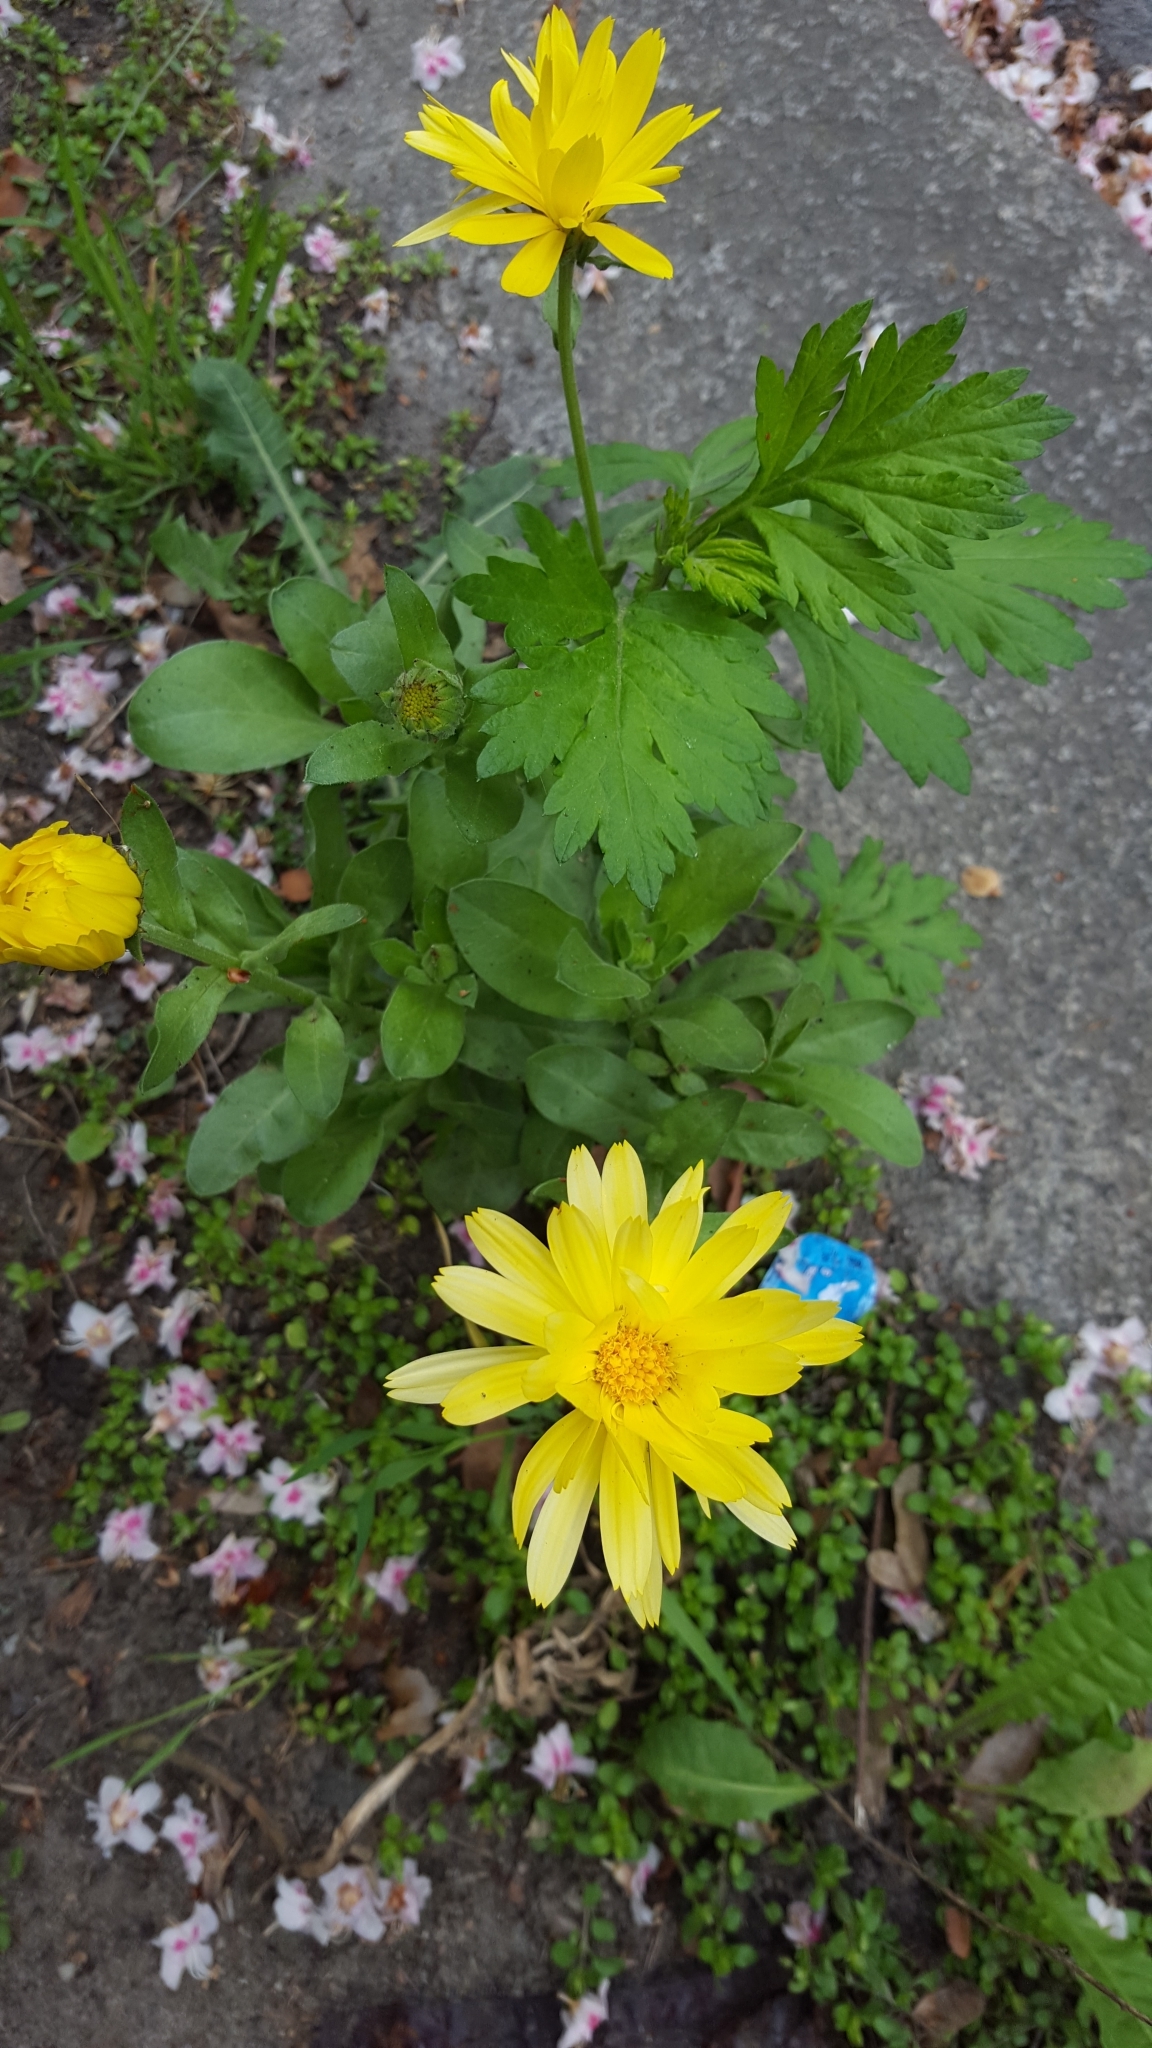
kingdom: Plantae
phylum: Tracheophyta
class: Magnoliopsida
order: Asterales
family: Asteraceae
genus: Artemisia
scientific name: Artemisia vulgaris
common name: Mugwort
